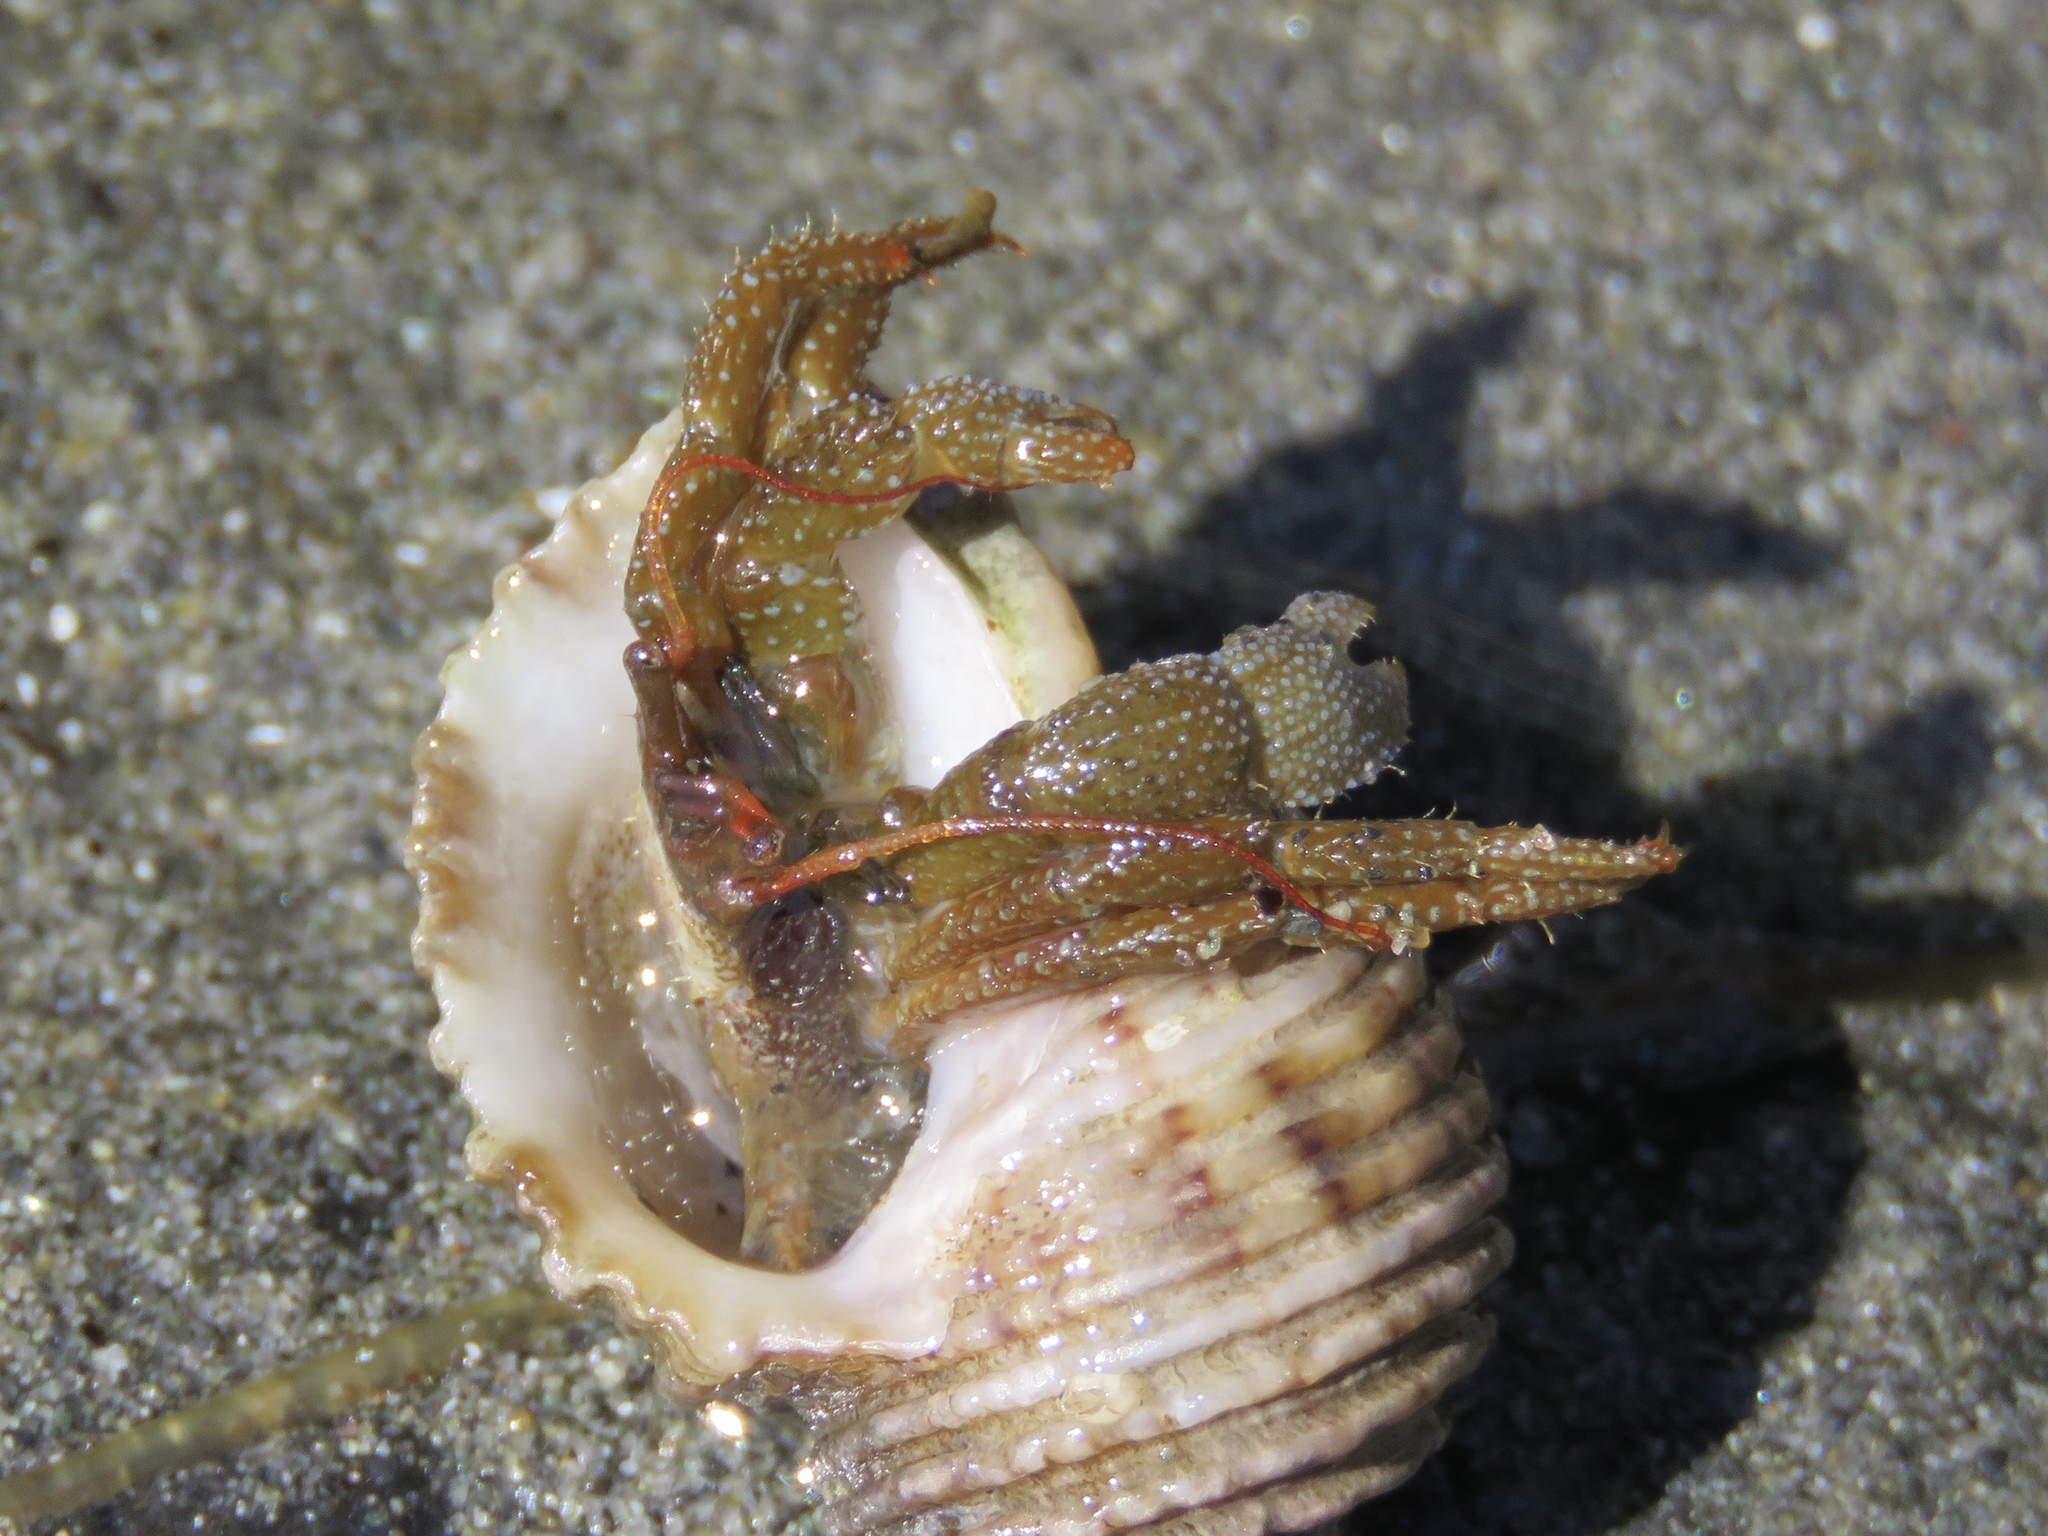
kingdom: Animalia
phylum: Arthropoda
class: Malacostraca
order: Decapoda
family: Paguridae
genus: Pagurus
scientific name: Pagurus granosimanus
